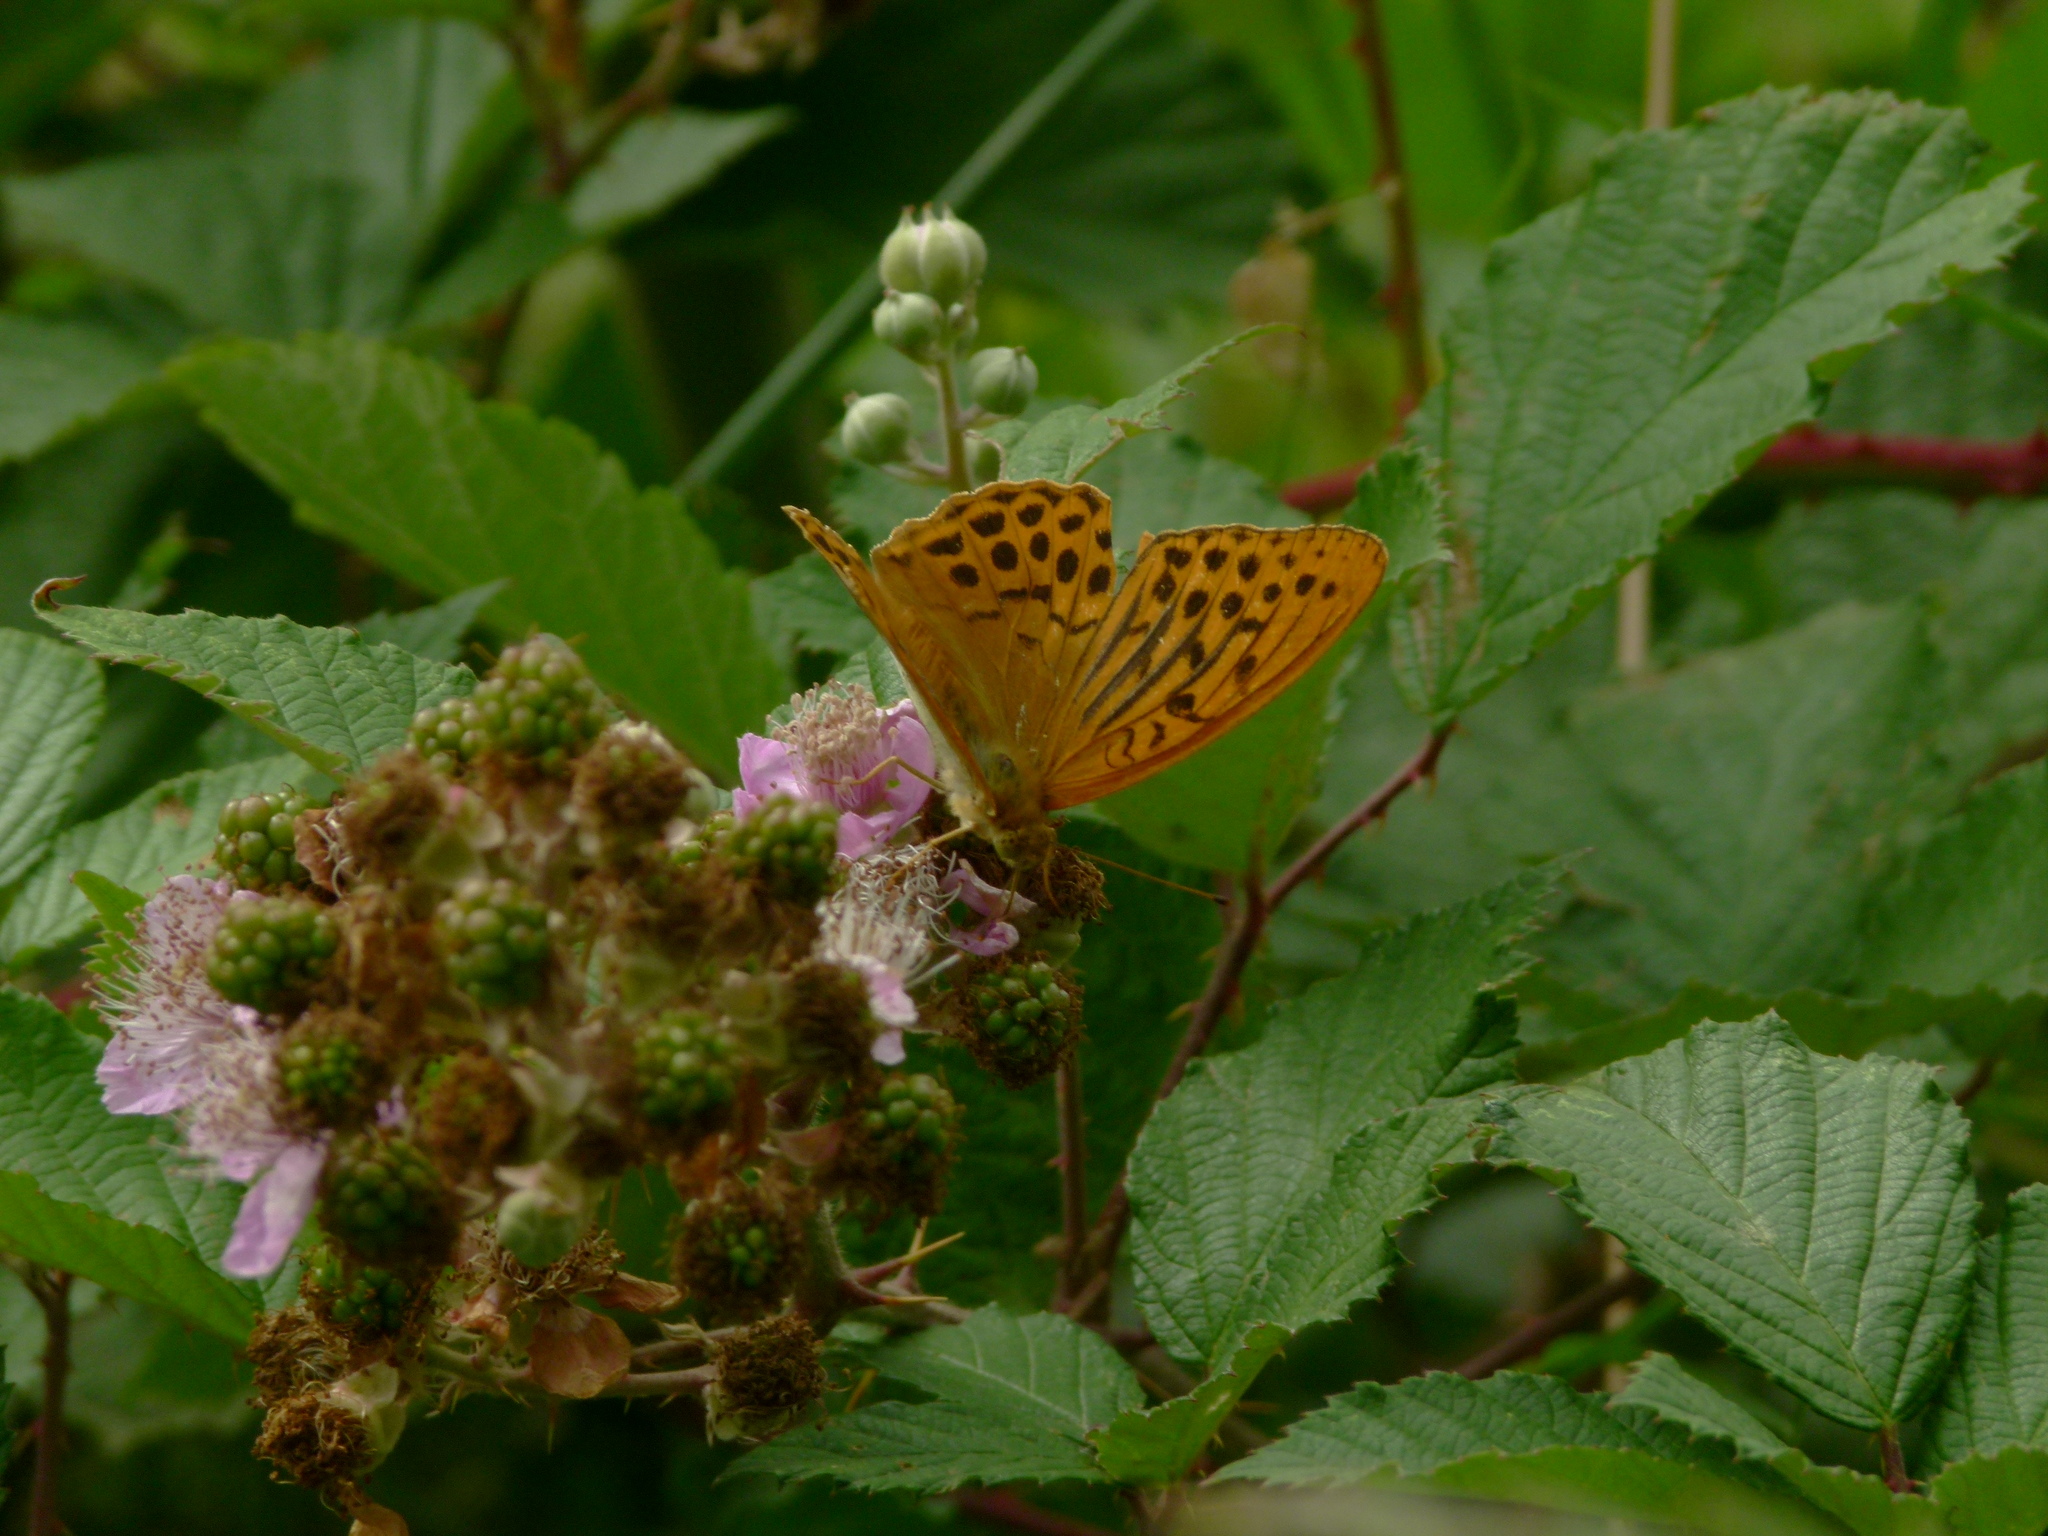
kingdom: Animalia
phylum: Arthropoda
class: Insecta
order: Lepidoptera
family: Nymphalidae
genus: Argynnis
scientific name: Argynnis paphia
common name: Silver-washed fritillary
